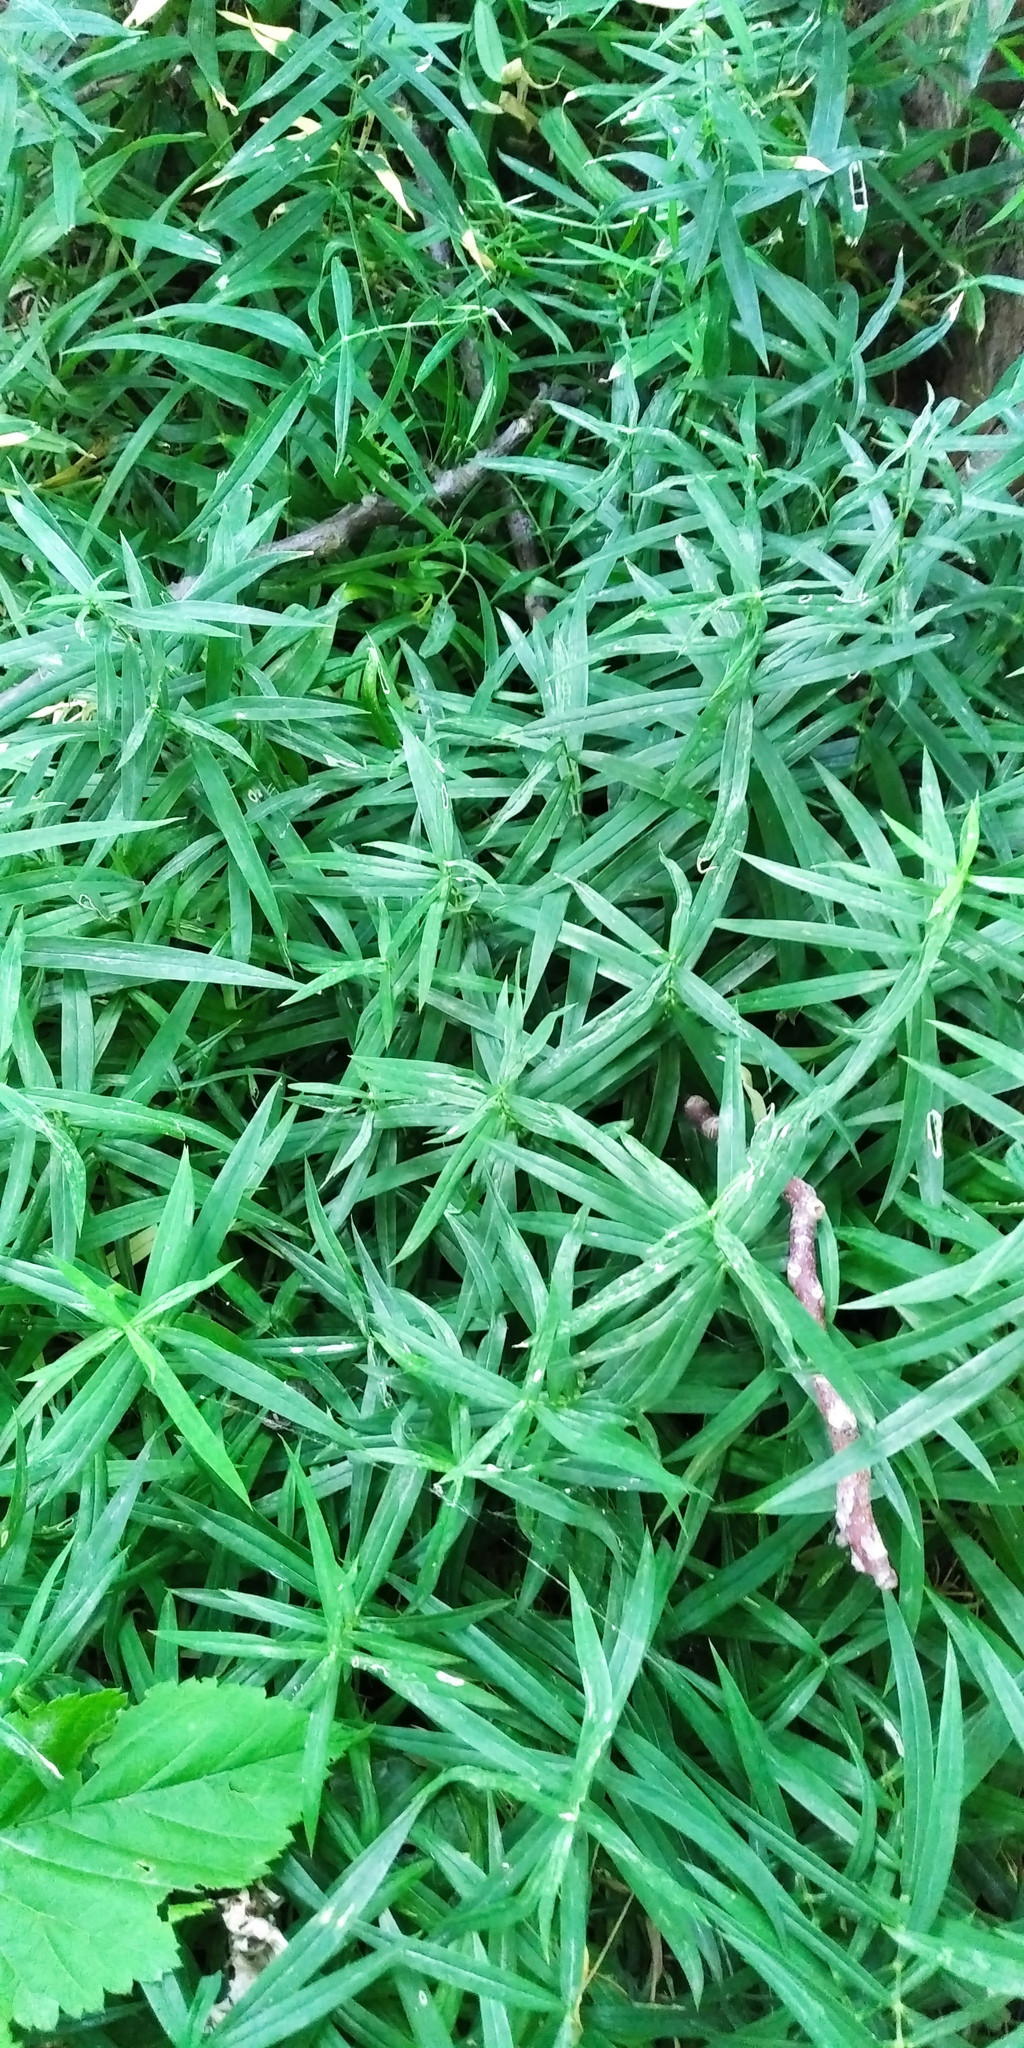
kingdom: Plantae
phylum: Tracheophyta
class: Magnoliopsida
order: Caryophyllales
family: Caryophyllaceae
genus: Rabelera
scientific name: Rabelera holostea
